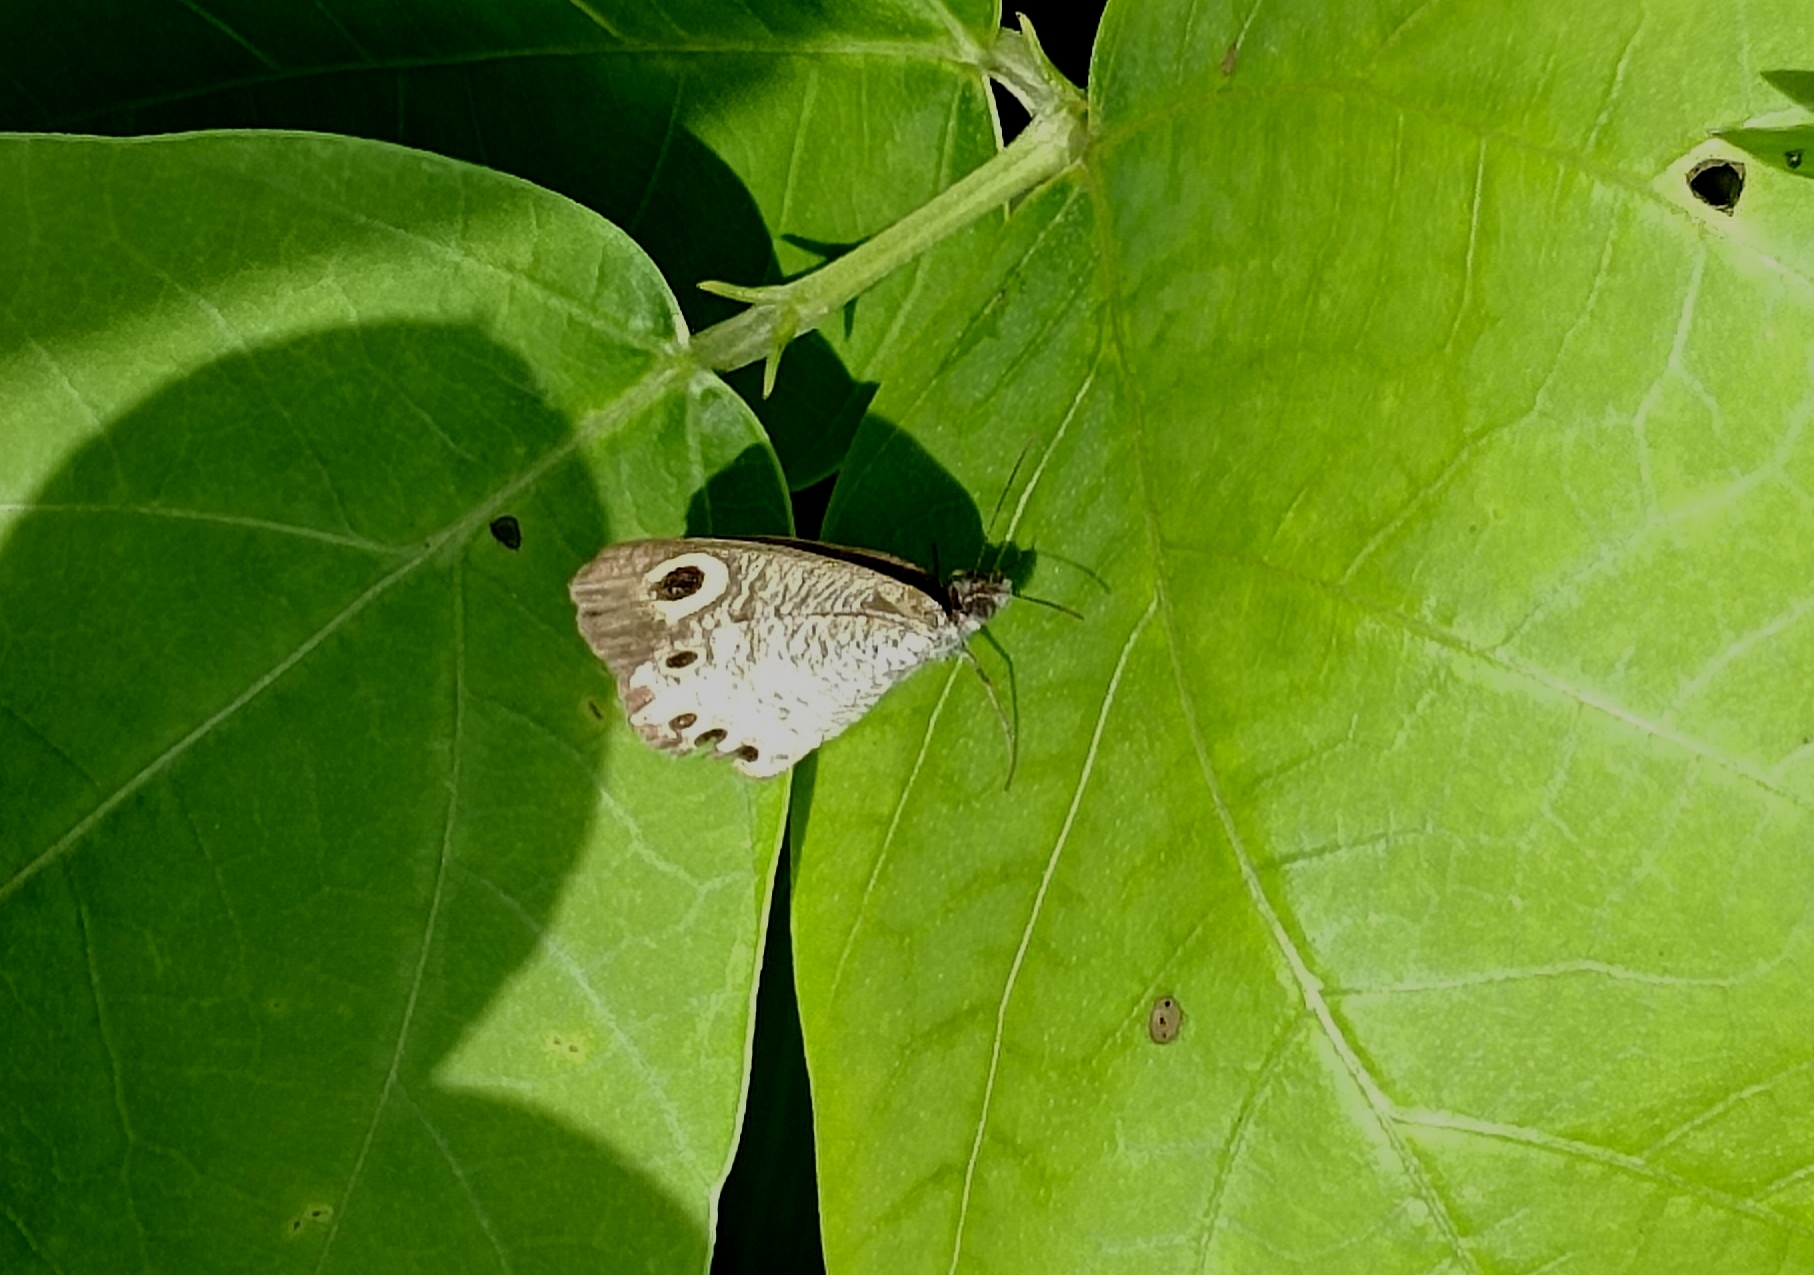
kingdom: Animalia
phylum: Arthropoda
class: Insecta
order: Lepidoptera
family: Nymphalidae
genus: Ypthima
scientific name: Ypthima huebneri
